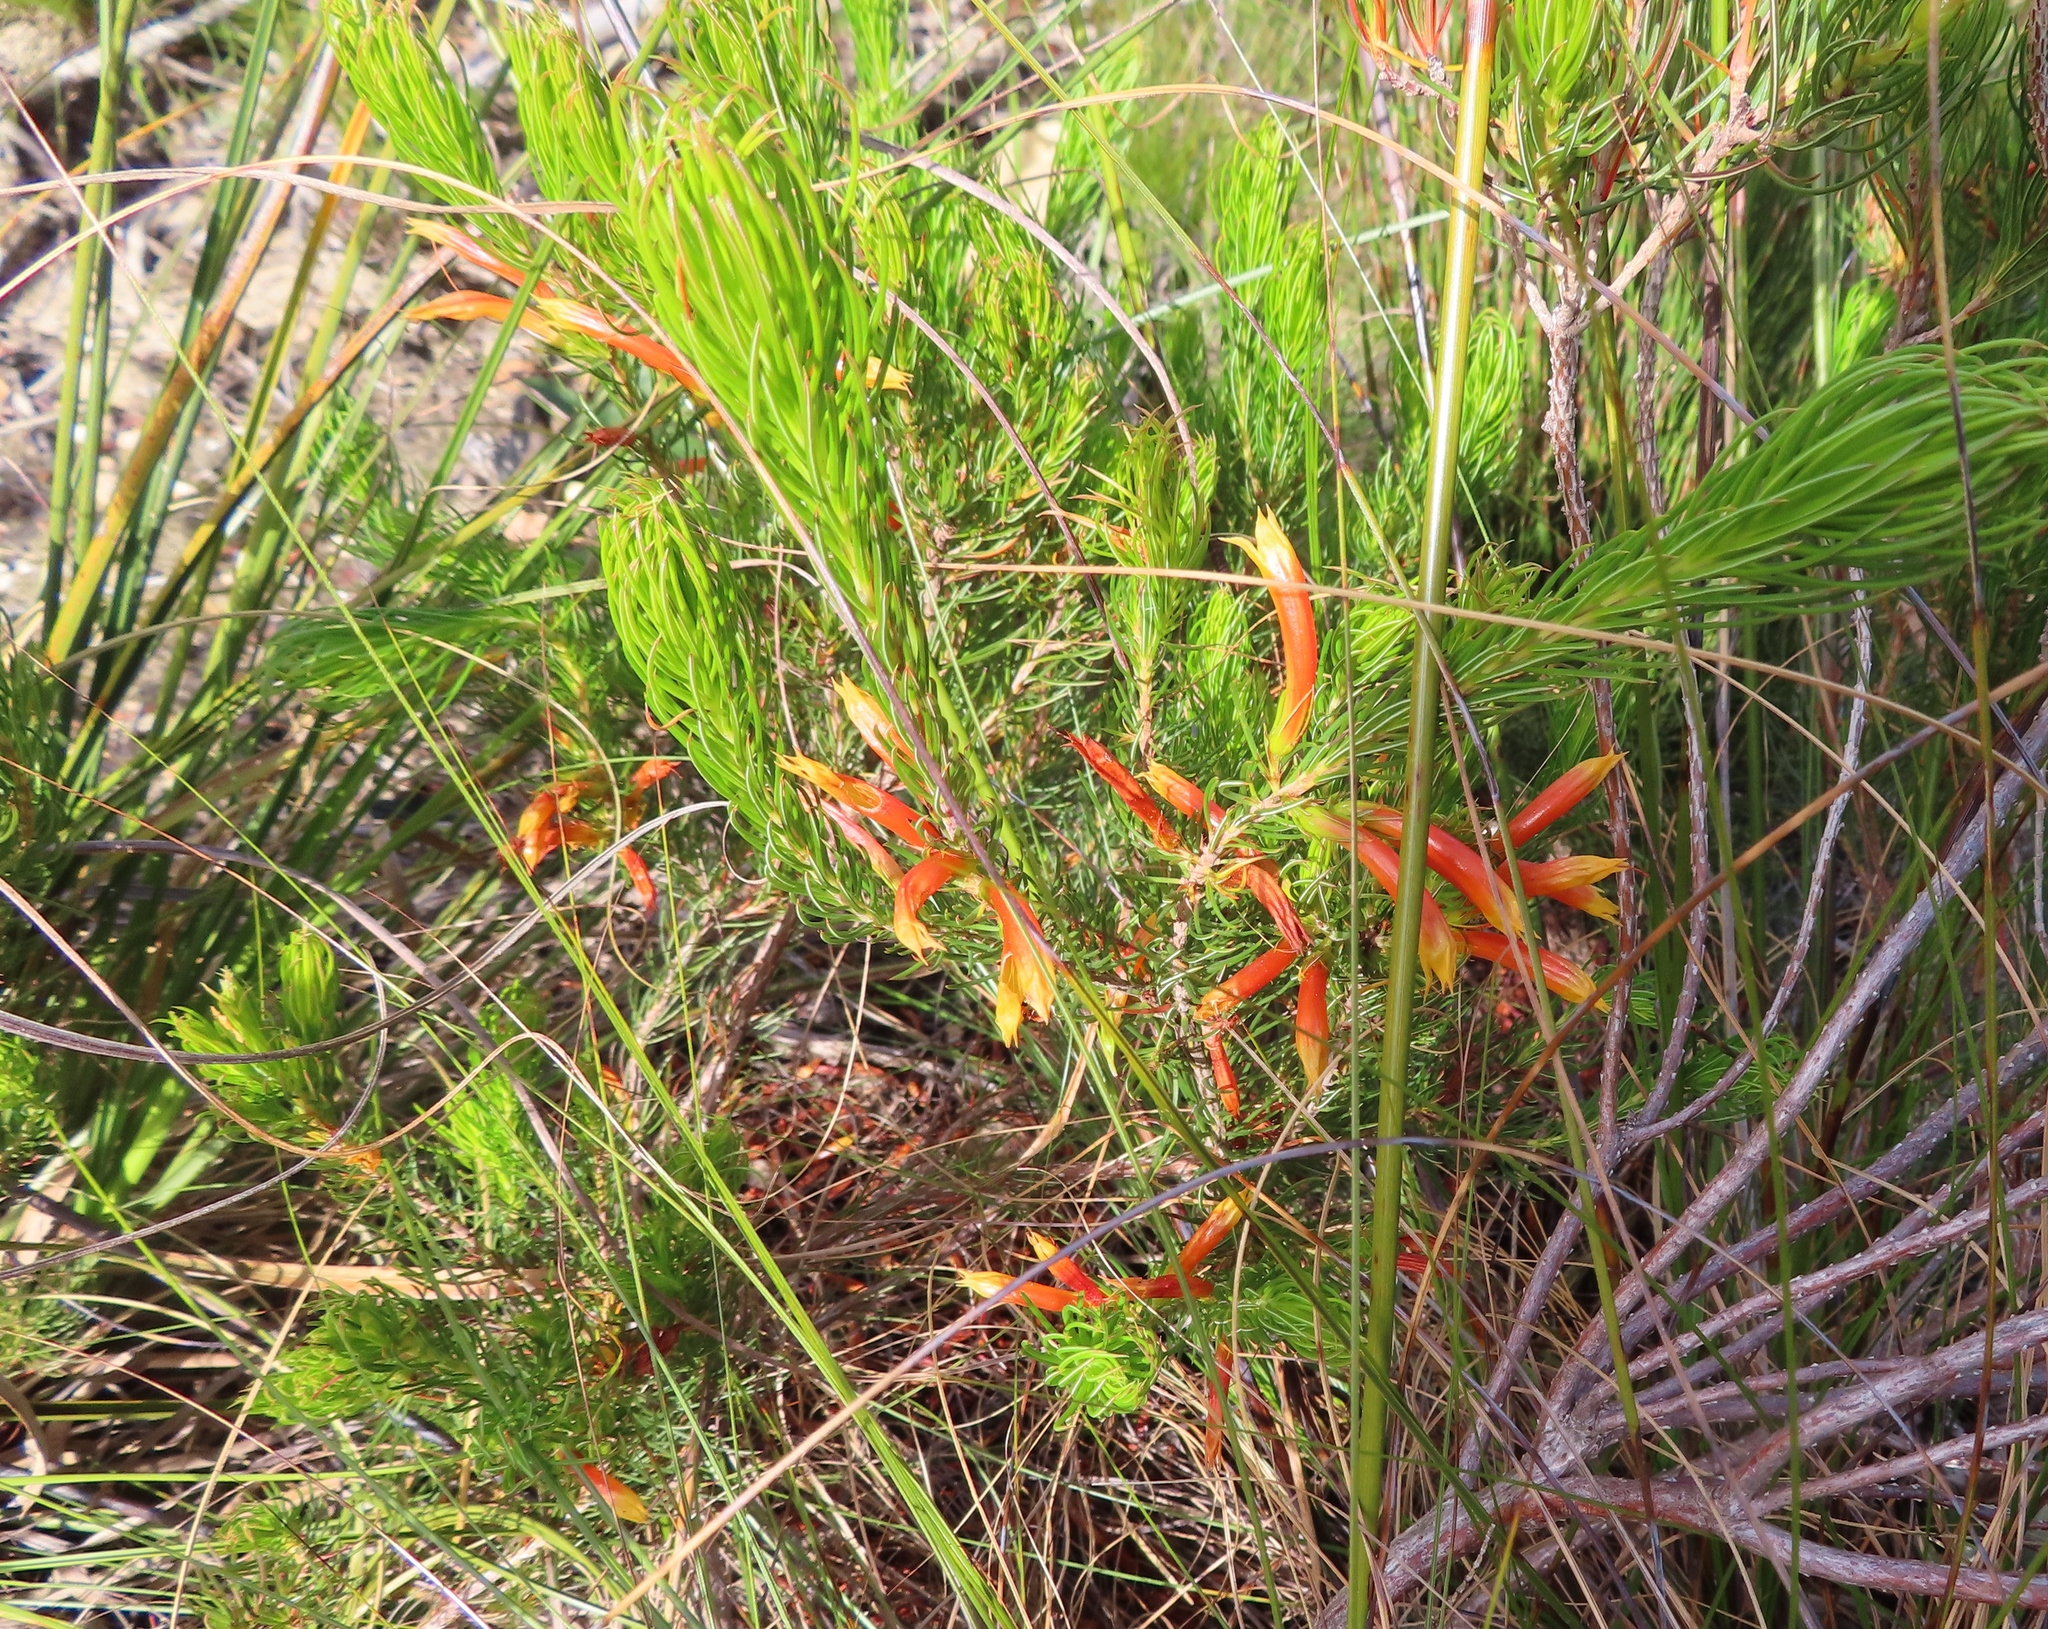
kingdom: Plantae
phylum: Tracheophyta
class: Magnoliopsida
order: Ericales
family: Ericaceae
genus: Erica
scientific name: Erica grandiflora
